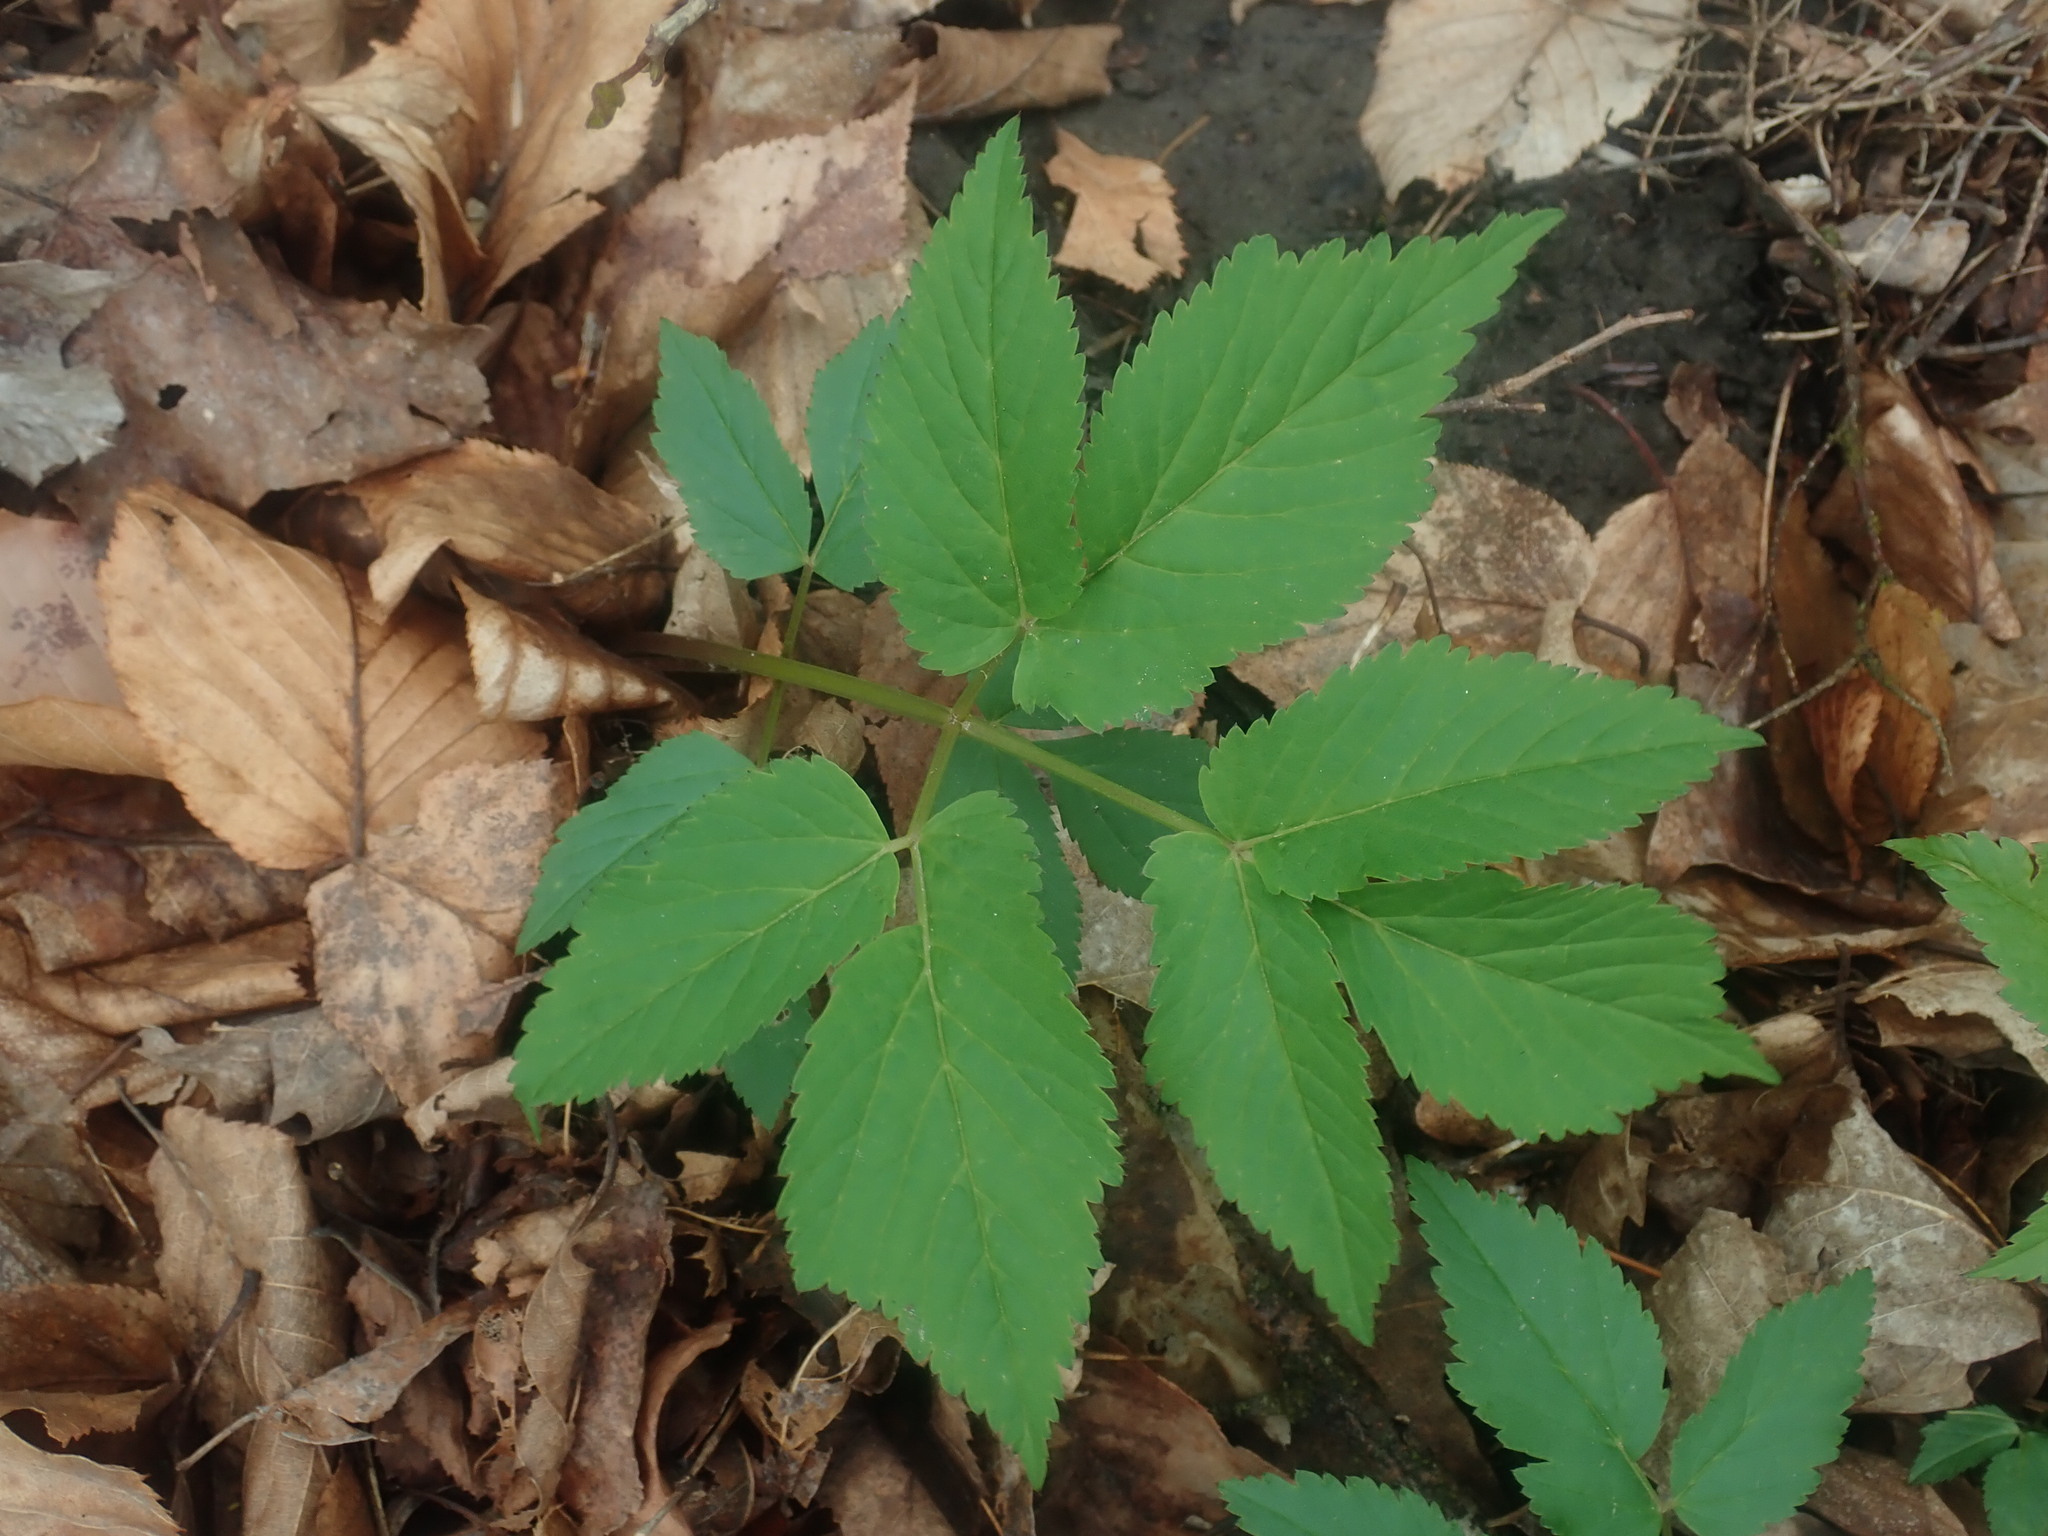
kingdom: Plantae
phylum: Tracheophyta
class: Magnoliopsida
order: Apiales
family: Apiaceae
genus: Aegopodium
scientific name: Aegopodium podagraria
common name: Ground-elder
